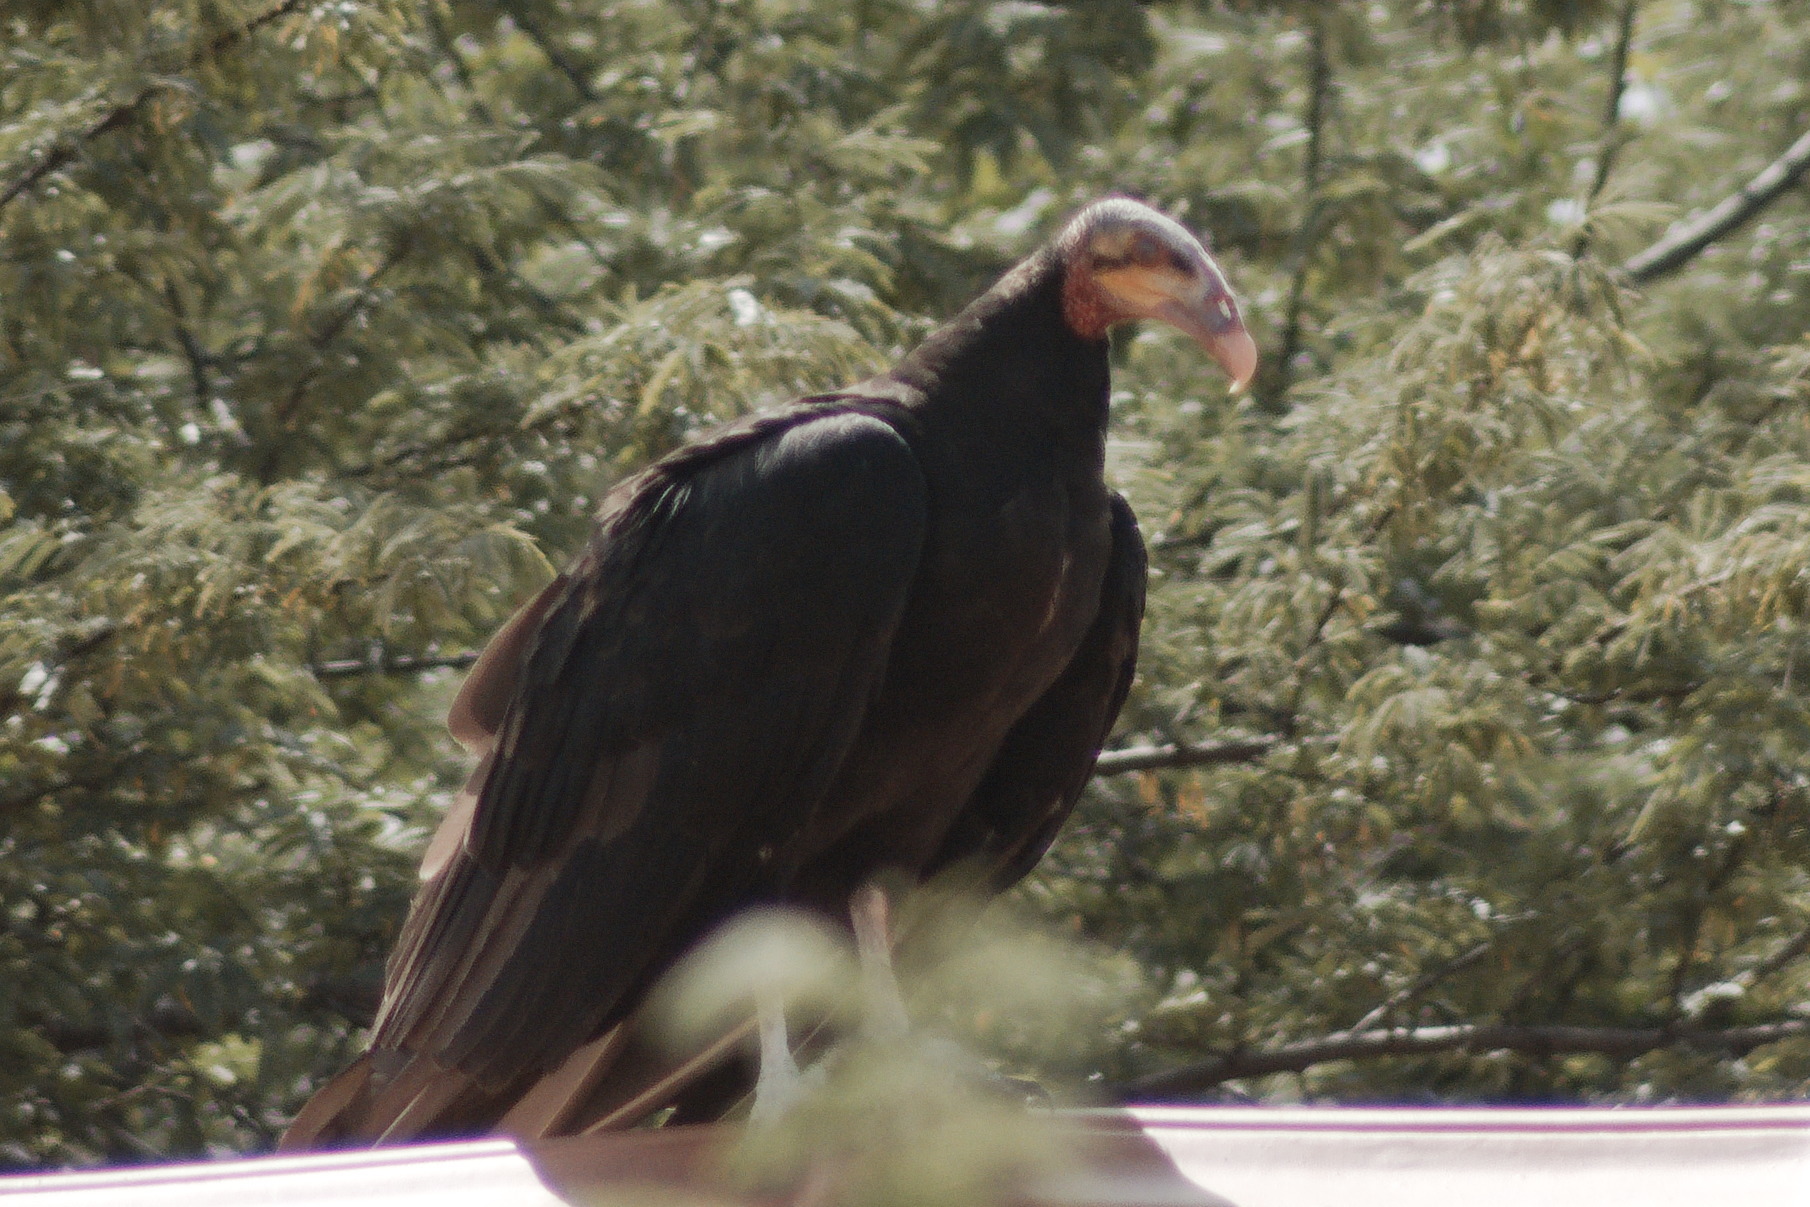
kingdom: Animalia
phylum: Chordata
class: Aves
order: Accipitriformes
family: Cathartidae
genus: Cathartes
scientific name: Cathartes burrovianus
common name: Lesser yellow-headed vulture
